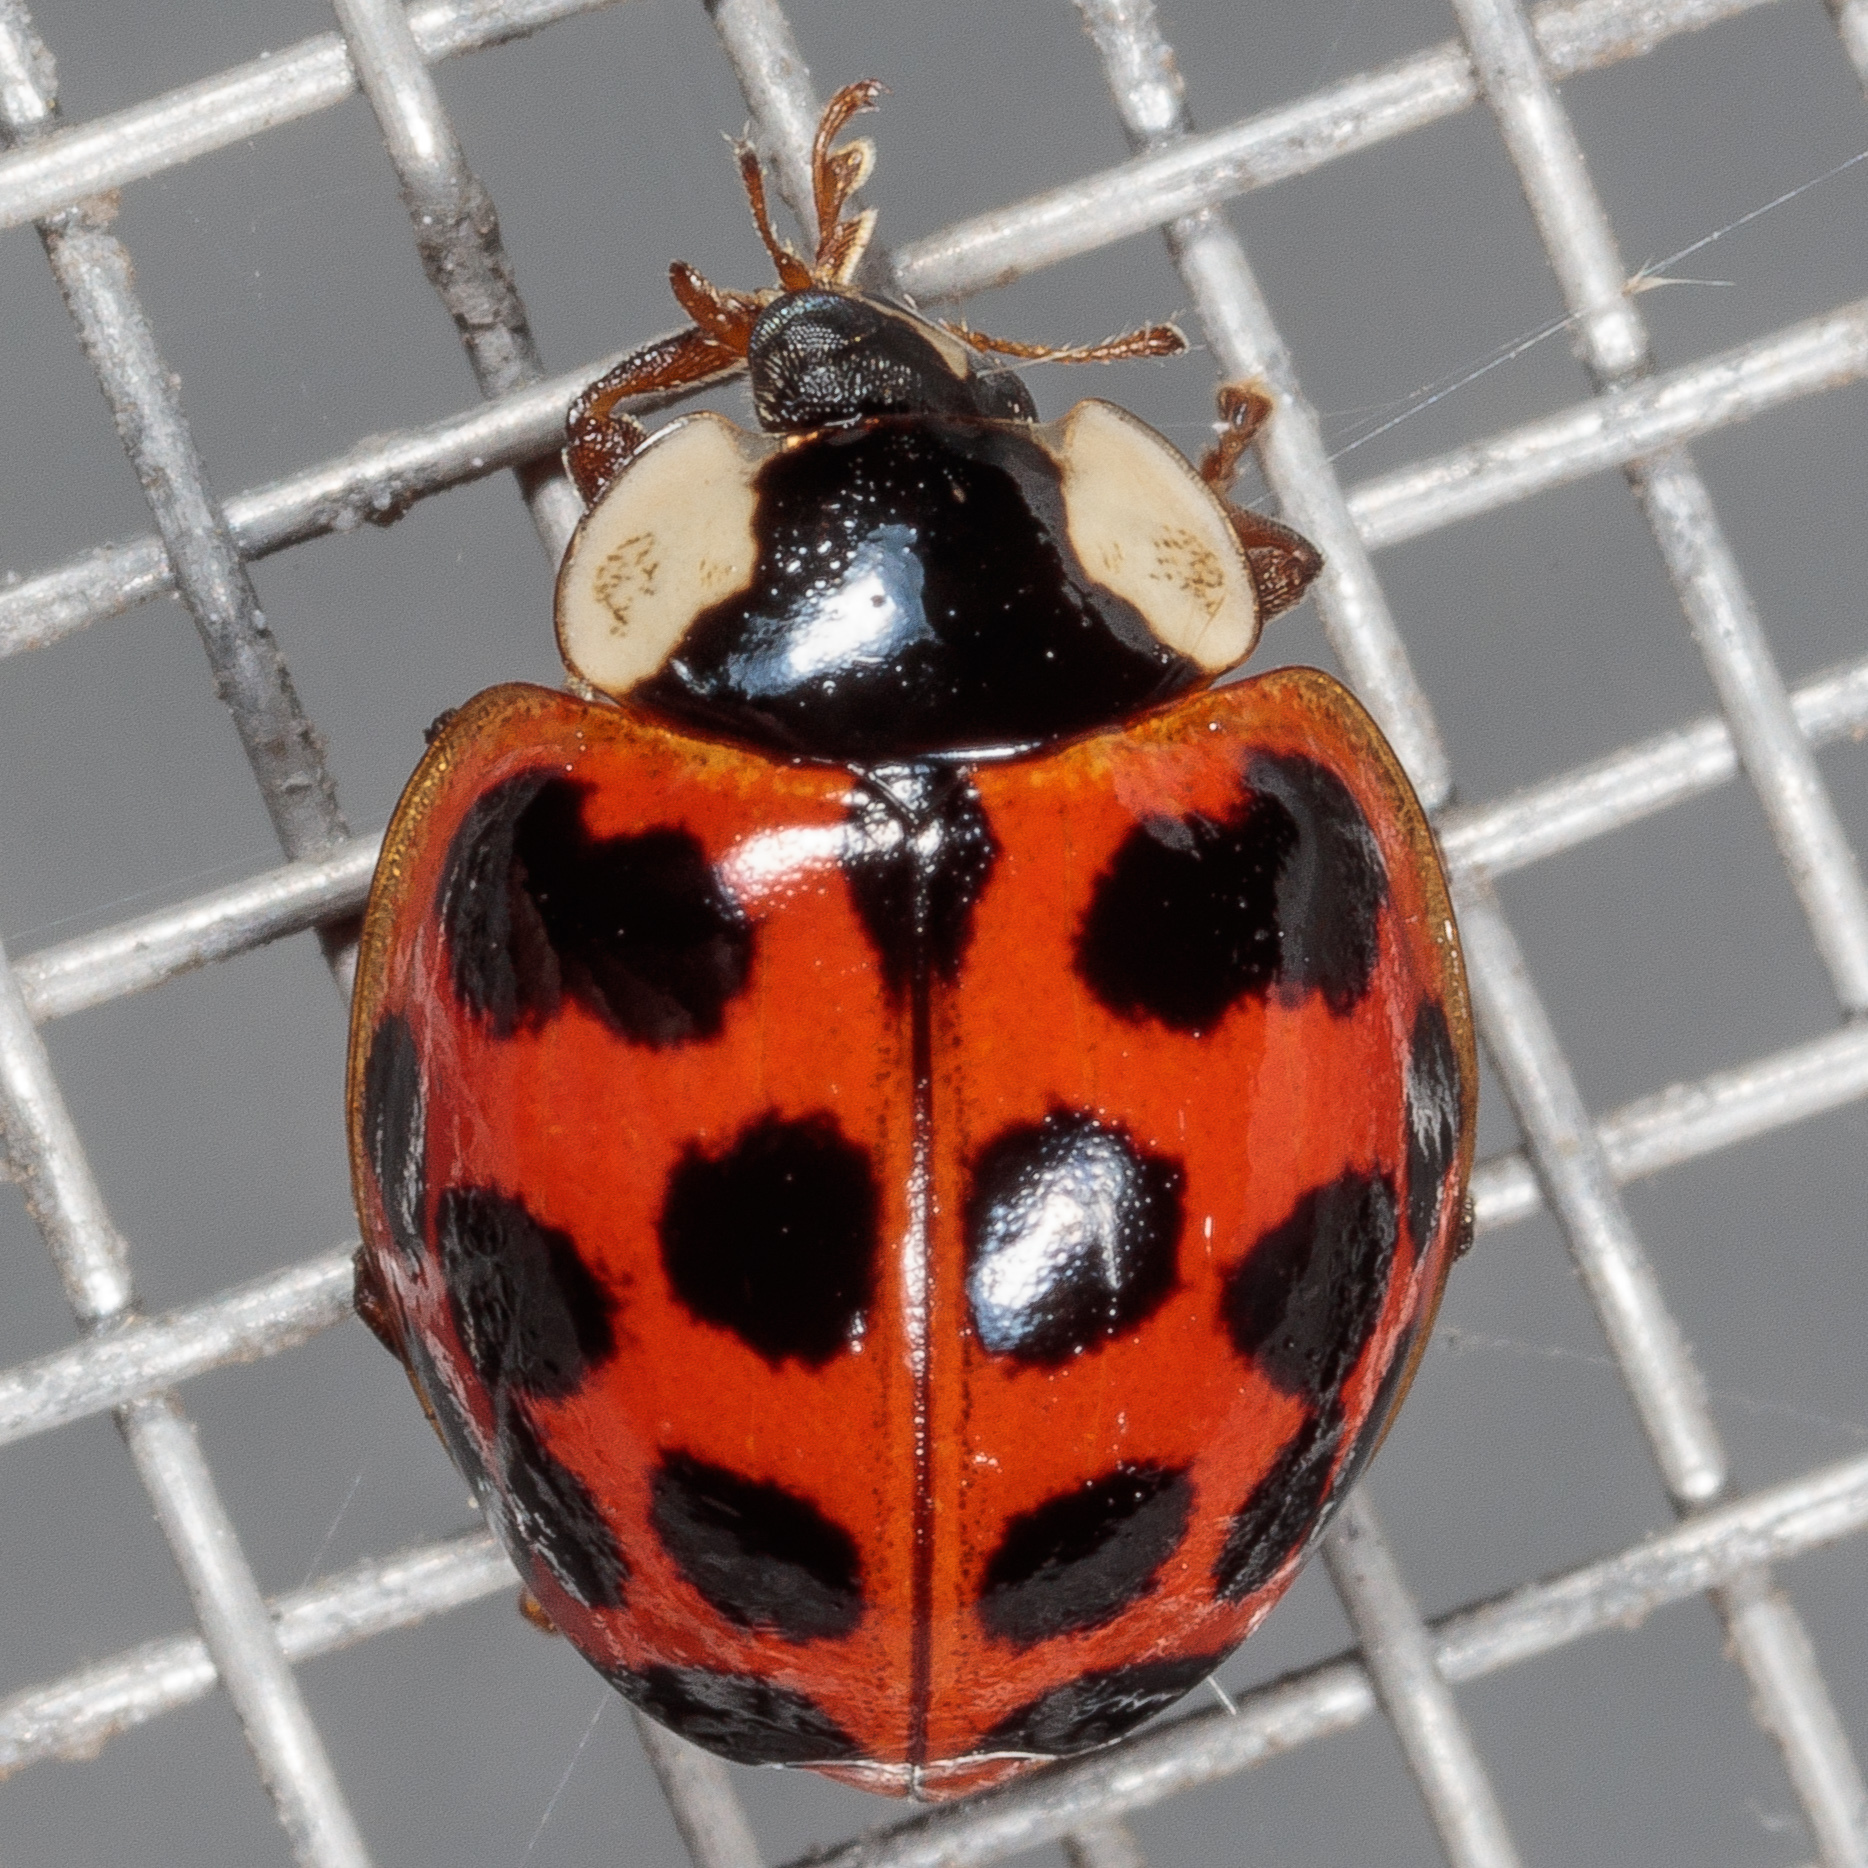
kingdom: Animalia
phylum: Arthropoda
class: Insecta
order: Coleoptera
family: Coccinellidae
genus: Harmonia
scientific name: Harmonia axyridis
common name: Harlequin ladybird
